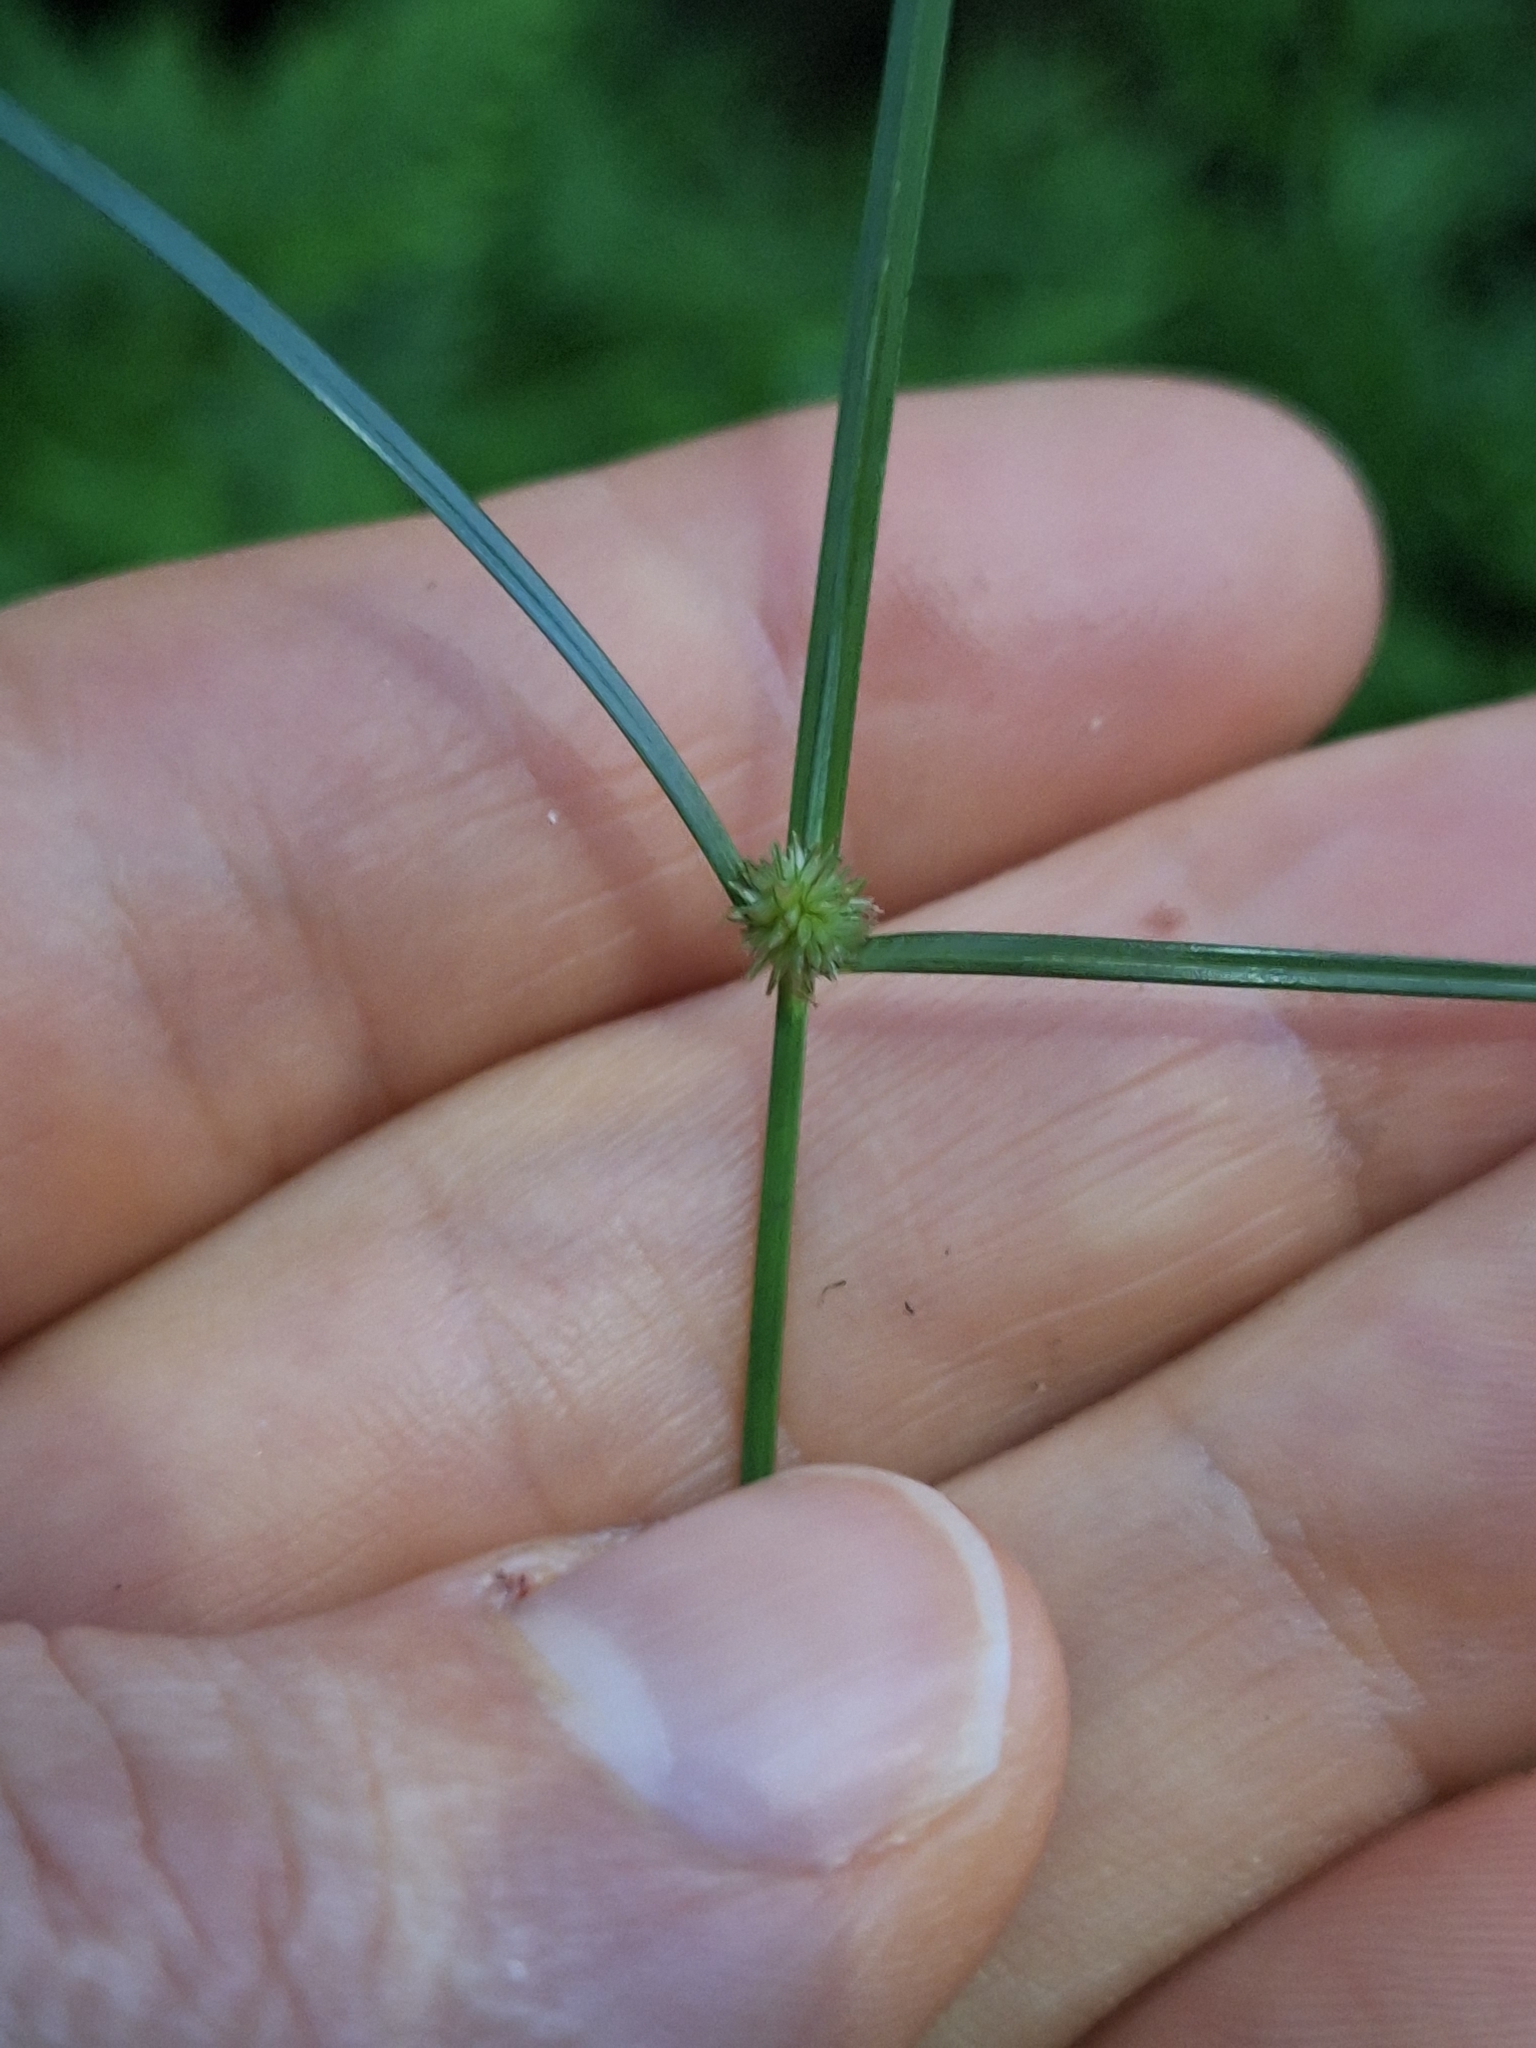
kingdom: Plantae
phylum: Tracheophyta
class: Liliopsida
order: Poales
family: Cyperaceae
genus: Cyperus
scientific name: Cyperus brevifolius
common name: Globe kyllinga
